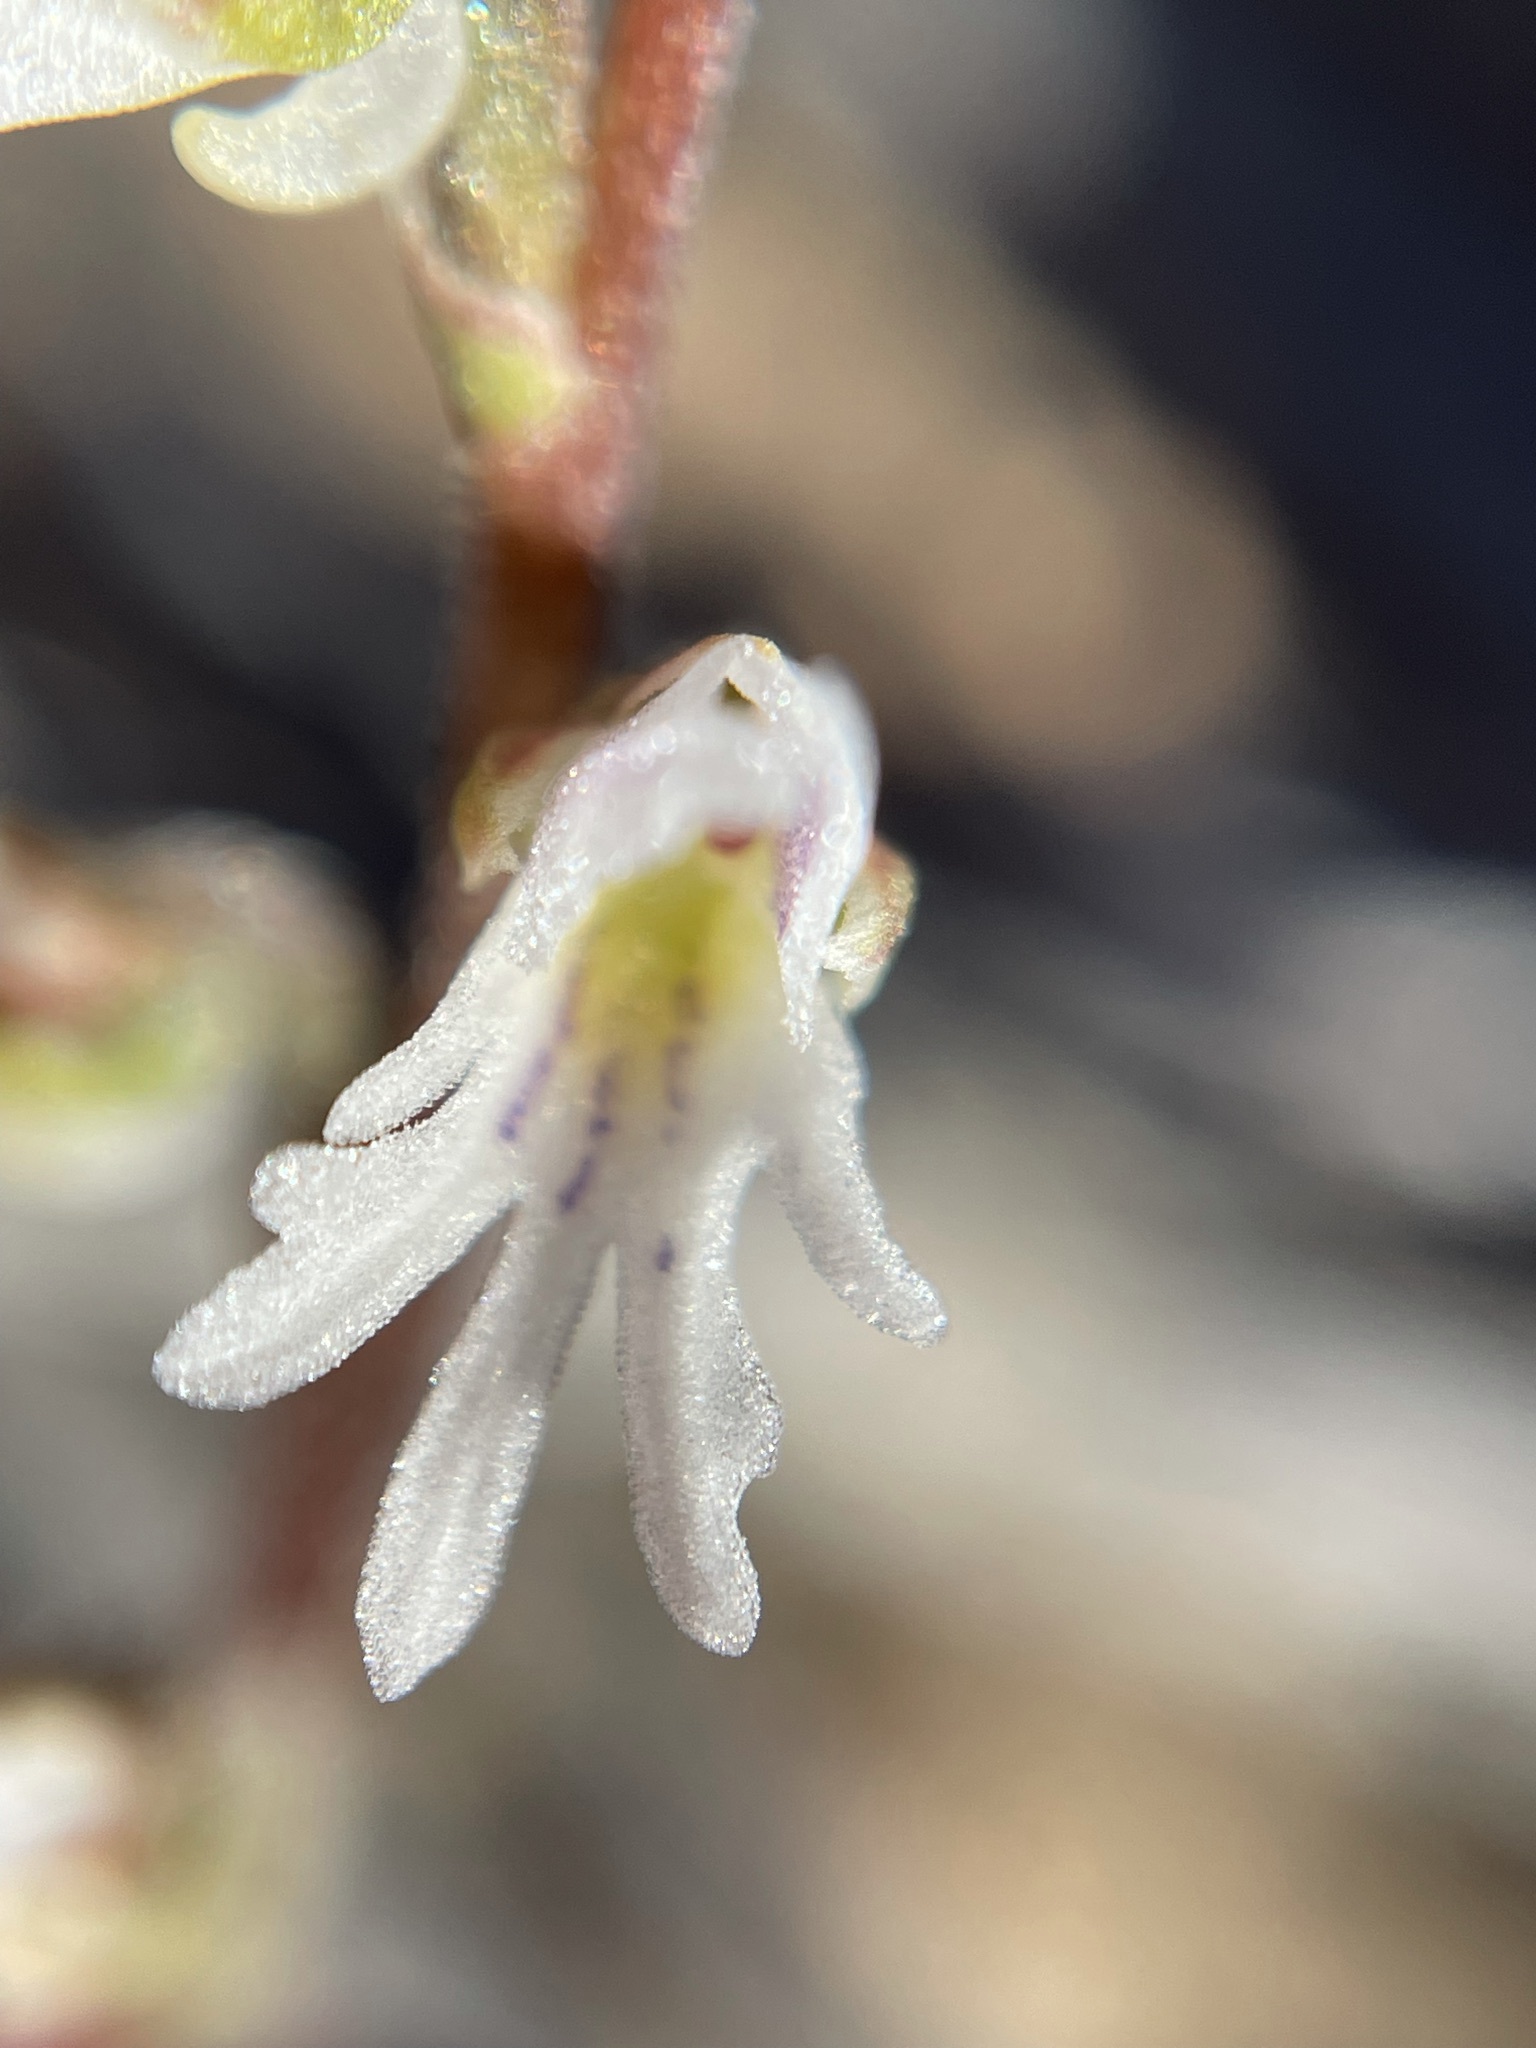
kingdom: Plantae
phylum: Tracheophyta
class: Liliopsida
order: Asparagales
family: Orchidaceae
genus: Holothrix
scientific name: Holothrix aspera
